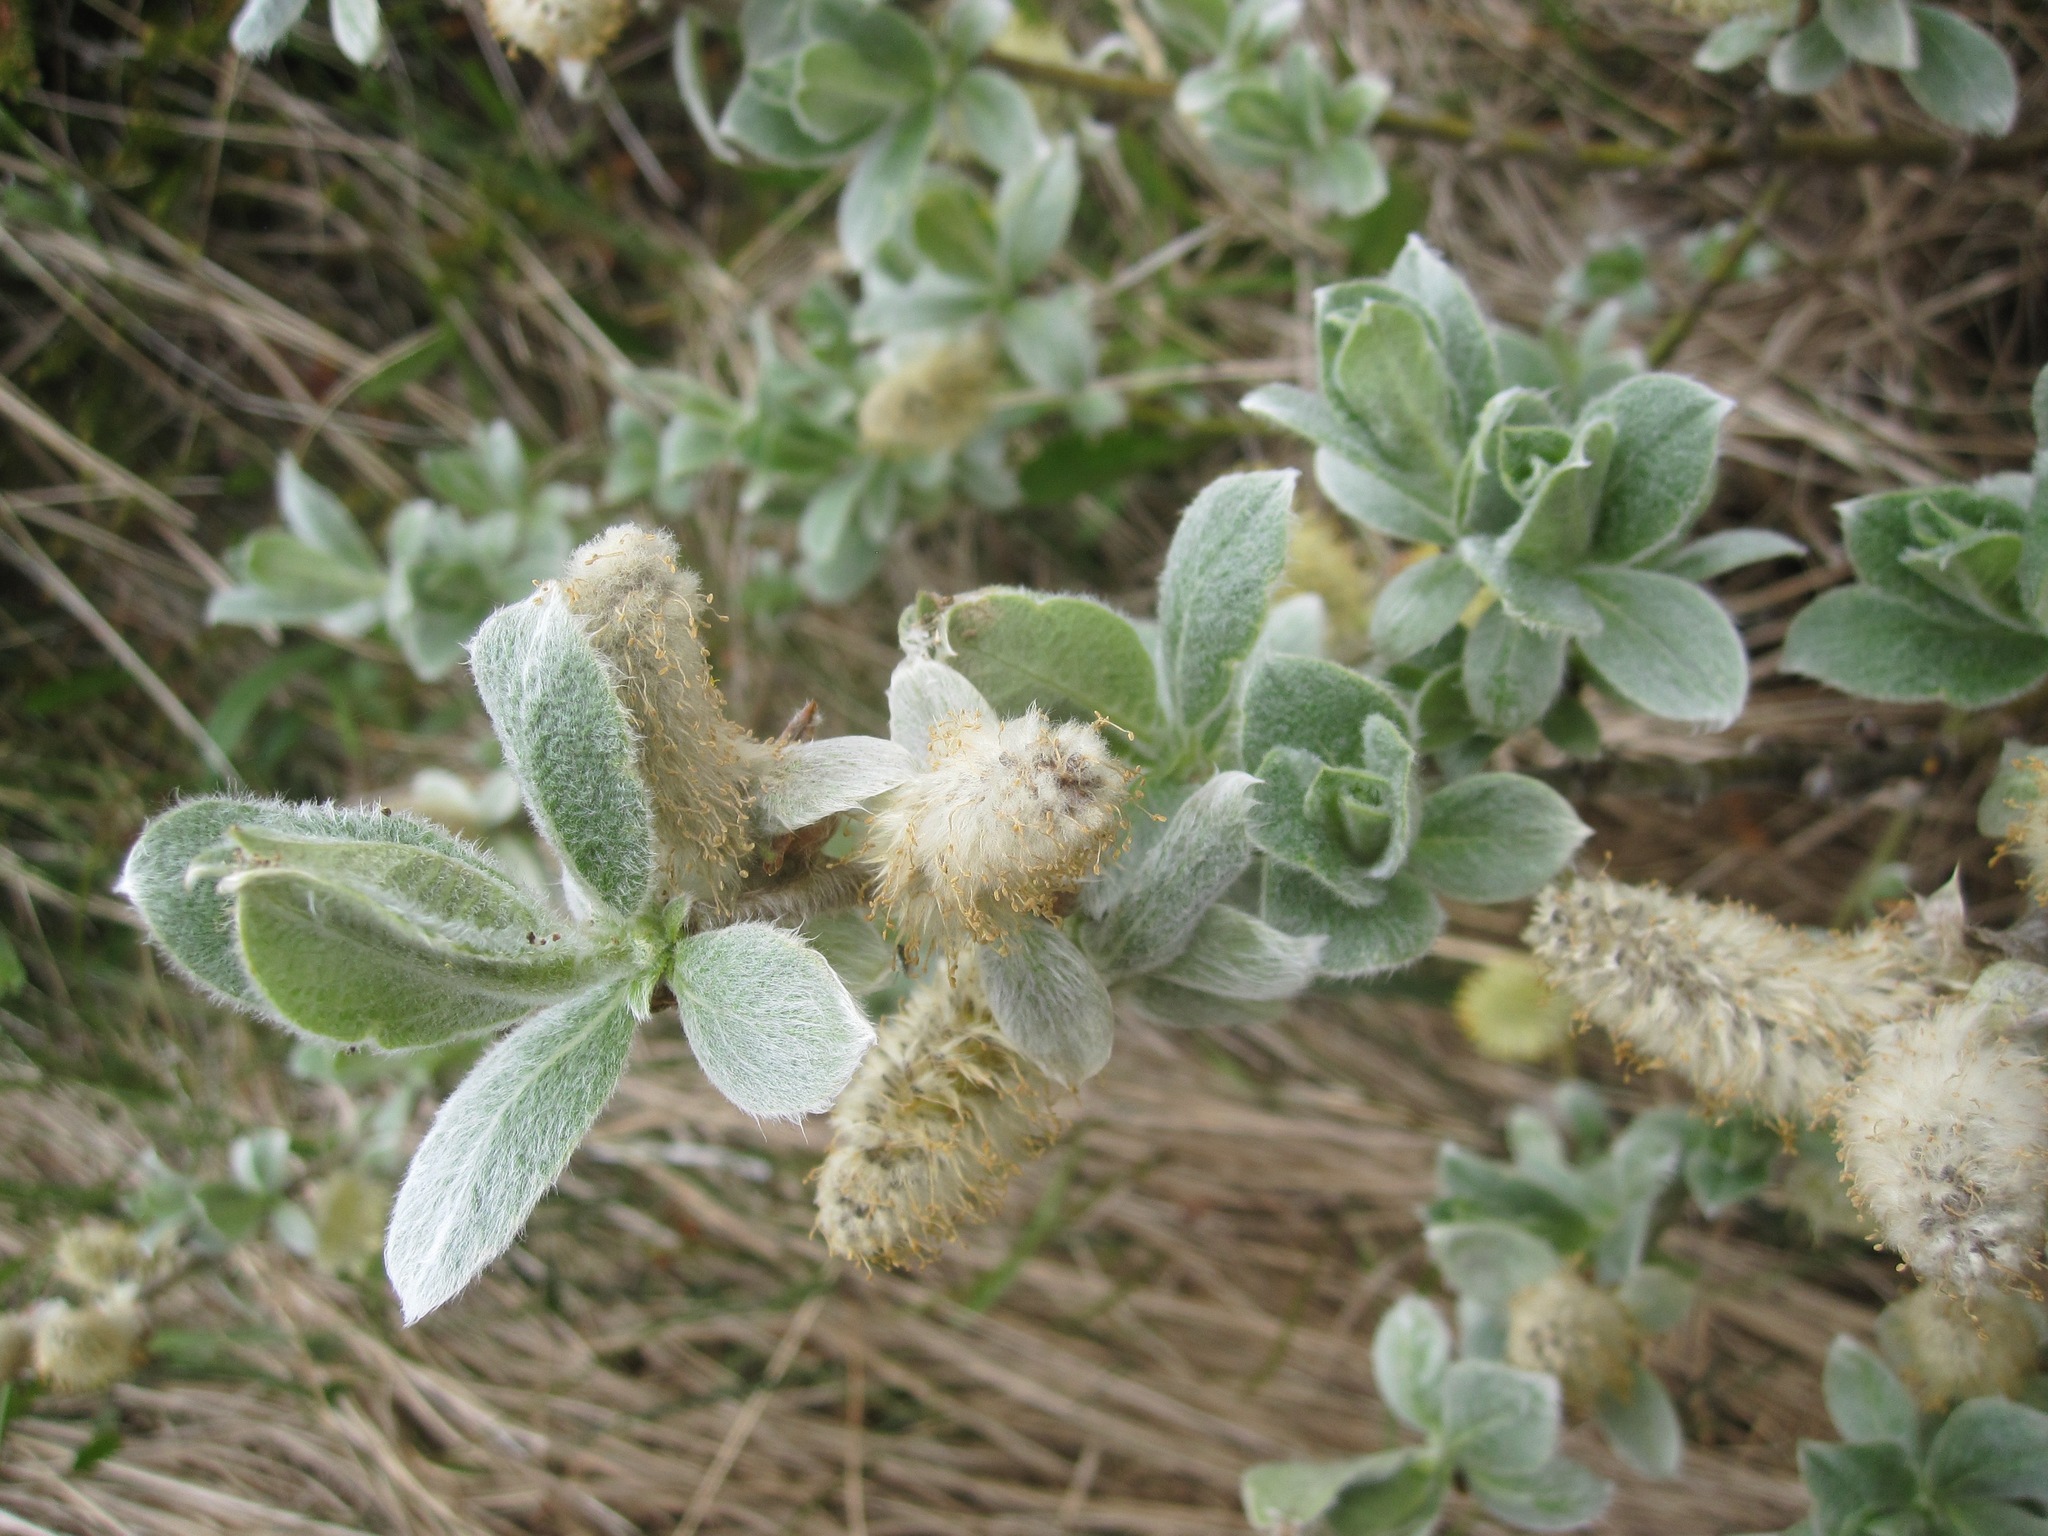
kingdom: Plantae
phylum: Tracheophyta
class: Magnoliopsida
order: Malpighiales
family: Salicaceae
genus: Salix
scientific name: Salix lanata
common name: Woolly willow
